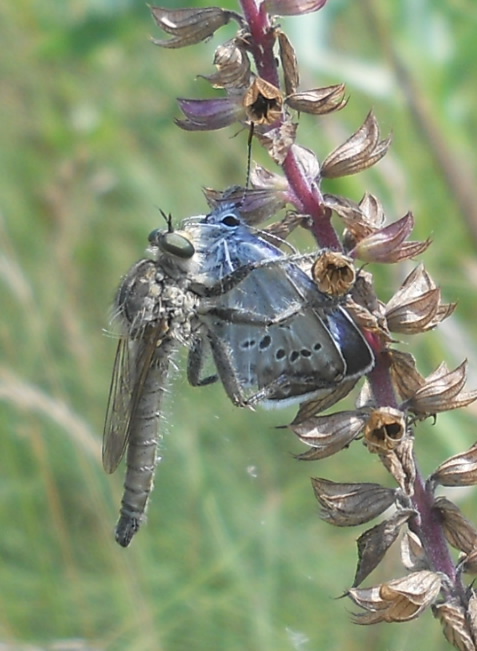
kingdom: Plantae
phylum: Tracheophyta
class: Magnoliopsida
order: Lamiales
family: Lamiaceae
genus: Salvia
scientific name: Salvia nemorosa
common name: Balkan clary
